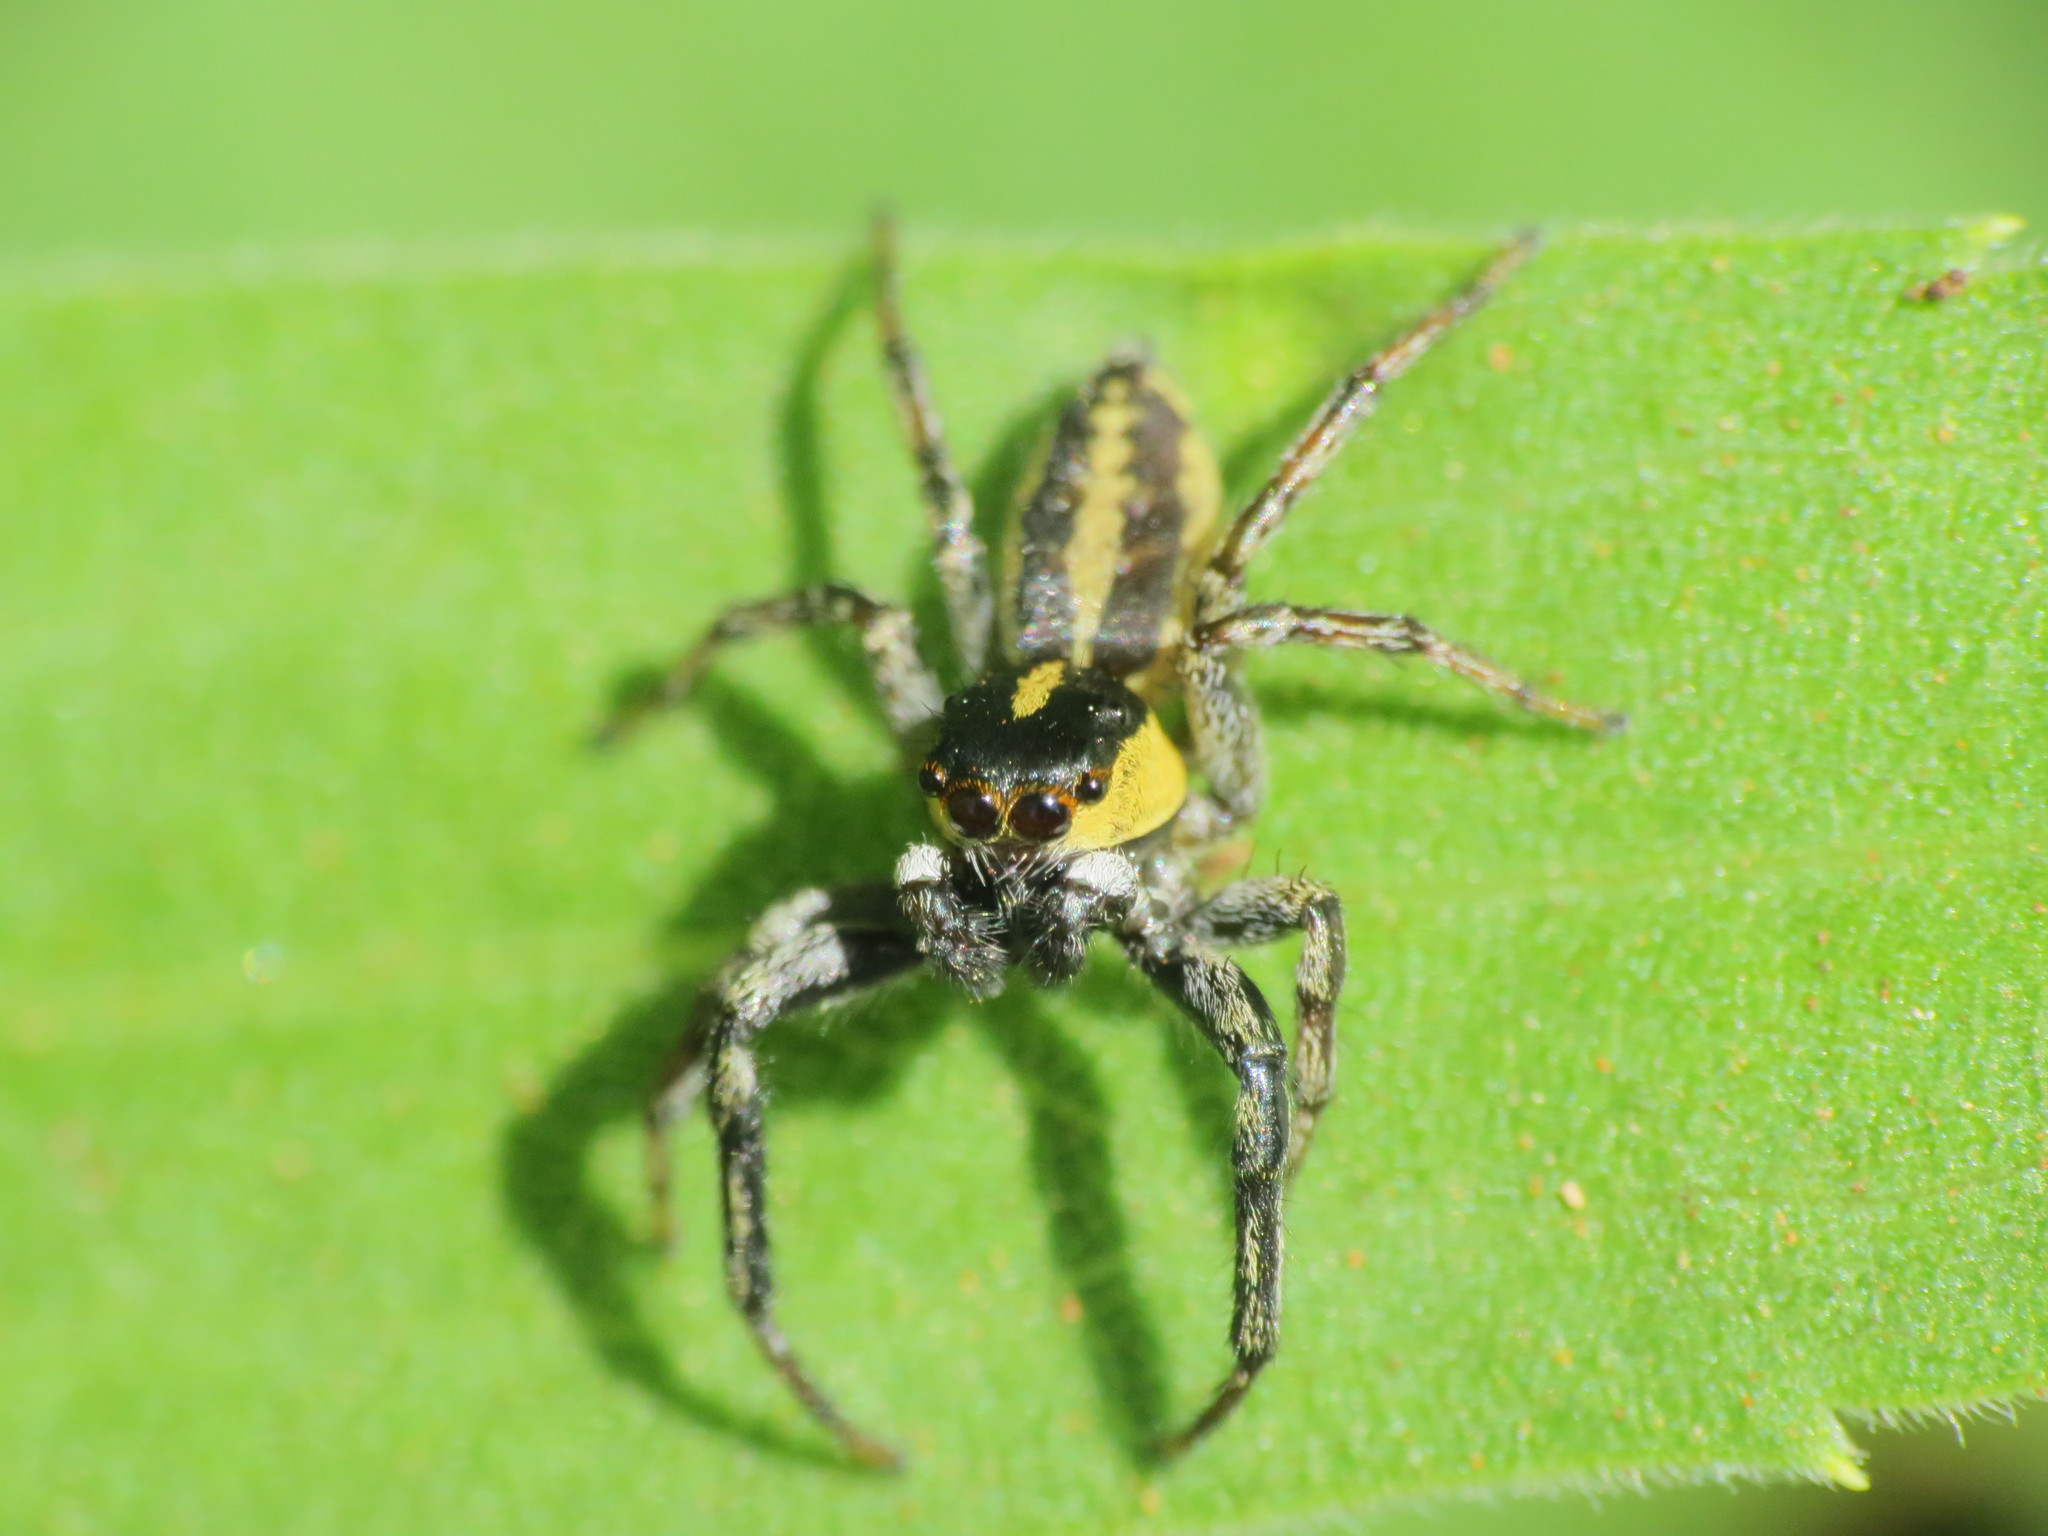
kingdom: Animalia
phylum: Arthropoda
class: Arachnida
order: Araneae
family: Salticidae
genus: Phiale
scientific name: Phiale tristis
